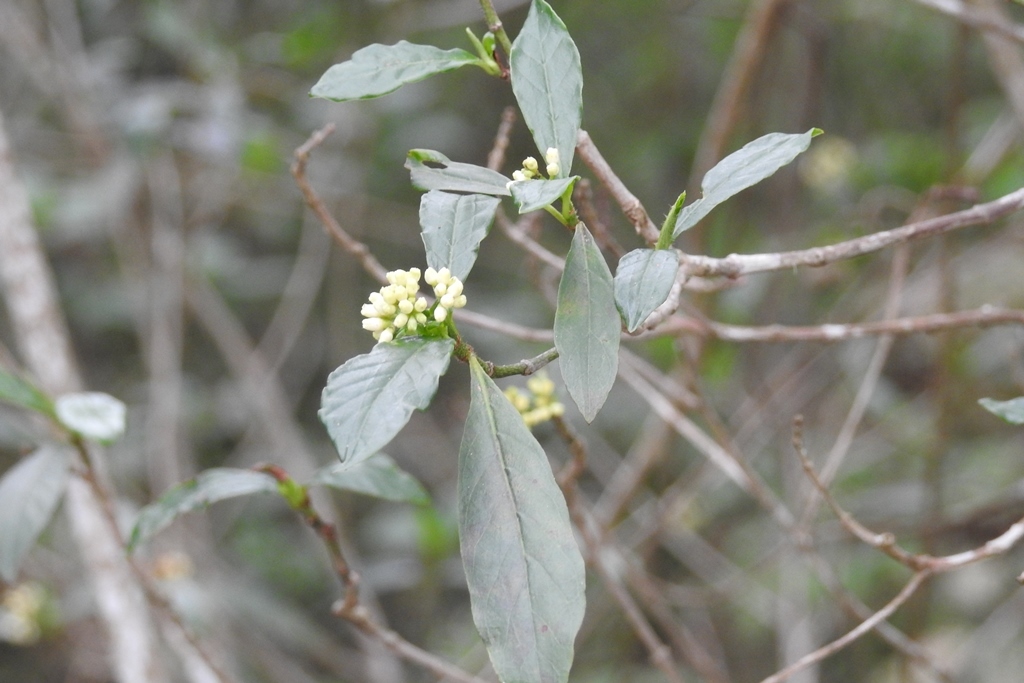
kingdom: Plantae
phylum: Tracheophyta
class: Magnoliopsida
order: Gentianales
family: Rubiaceae
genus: Psychotria
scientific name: Psychotria costivenia
